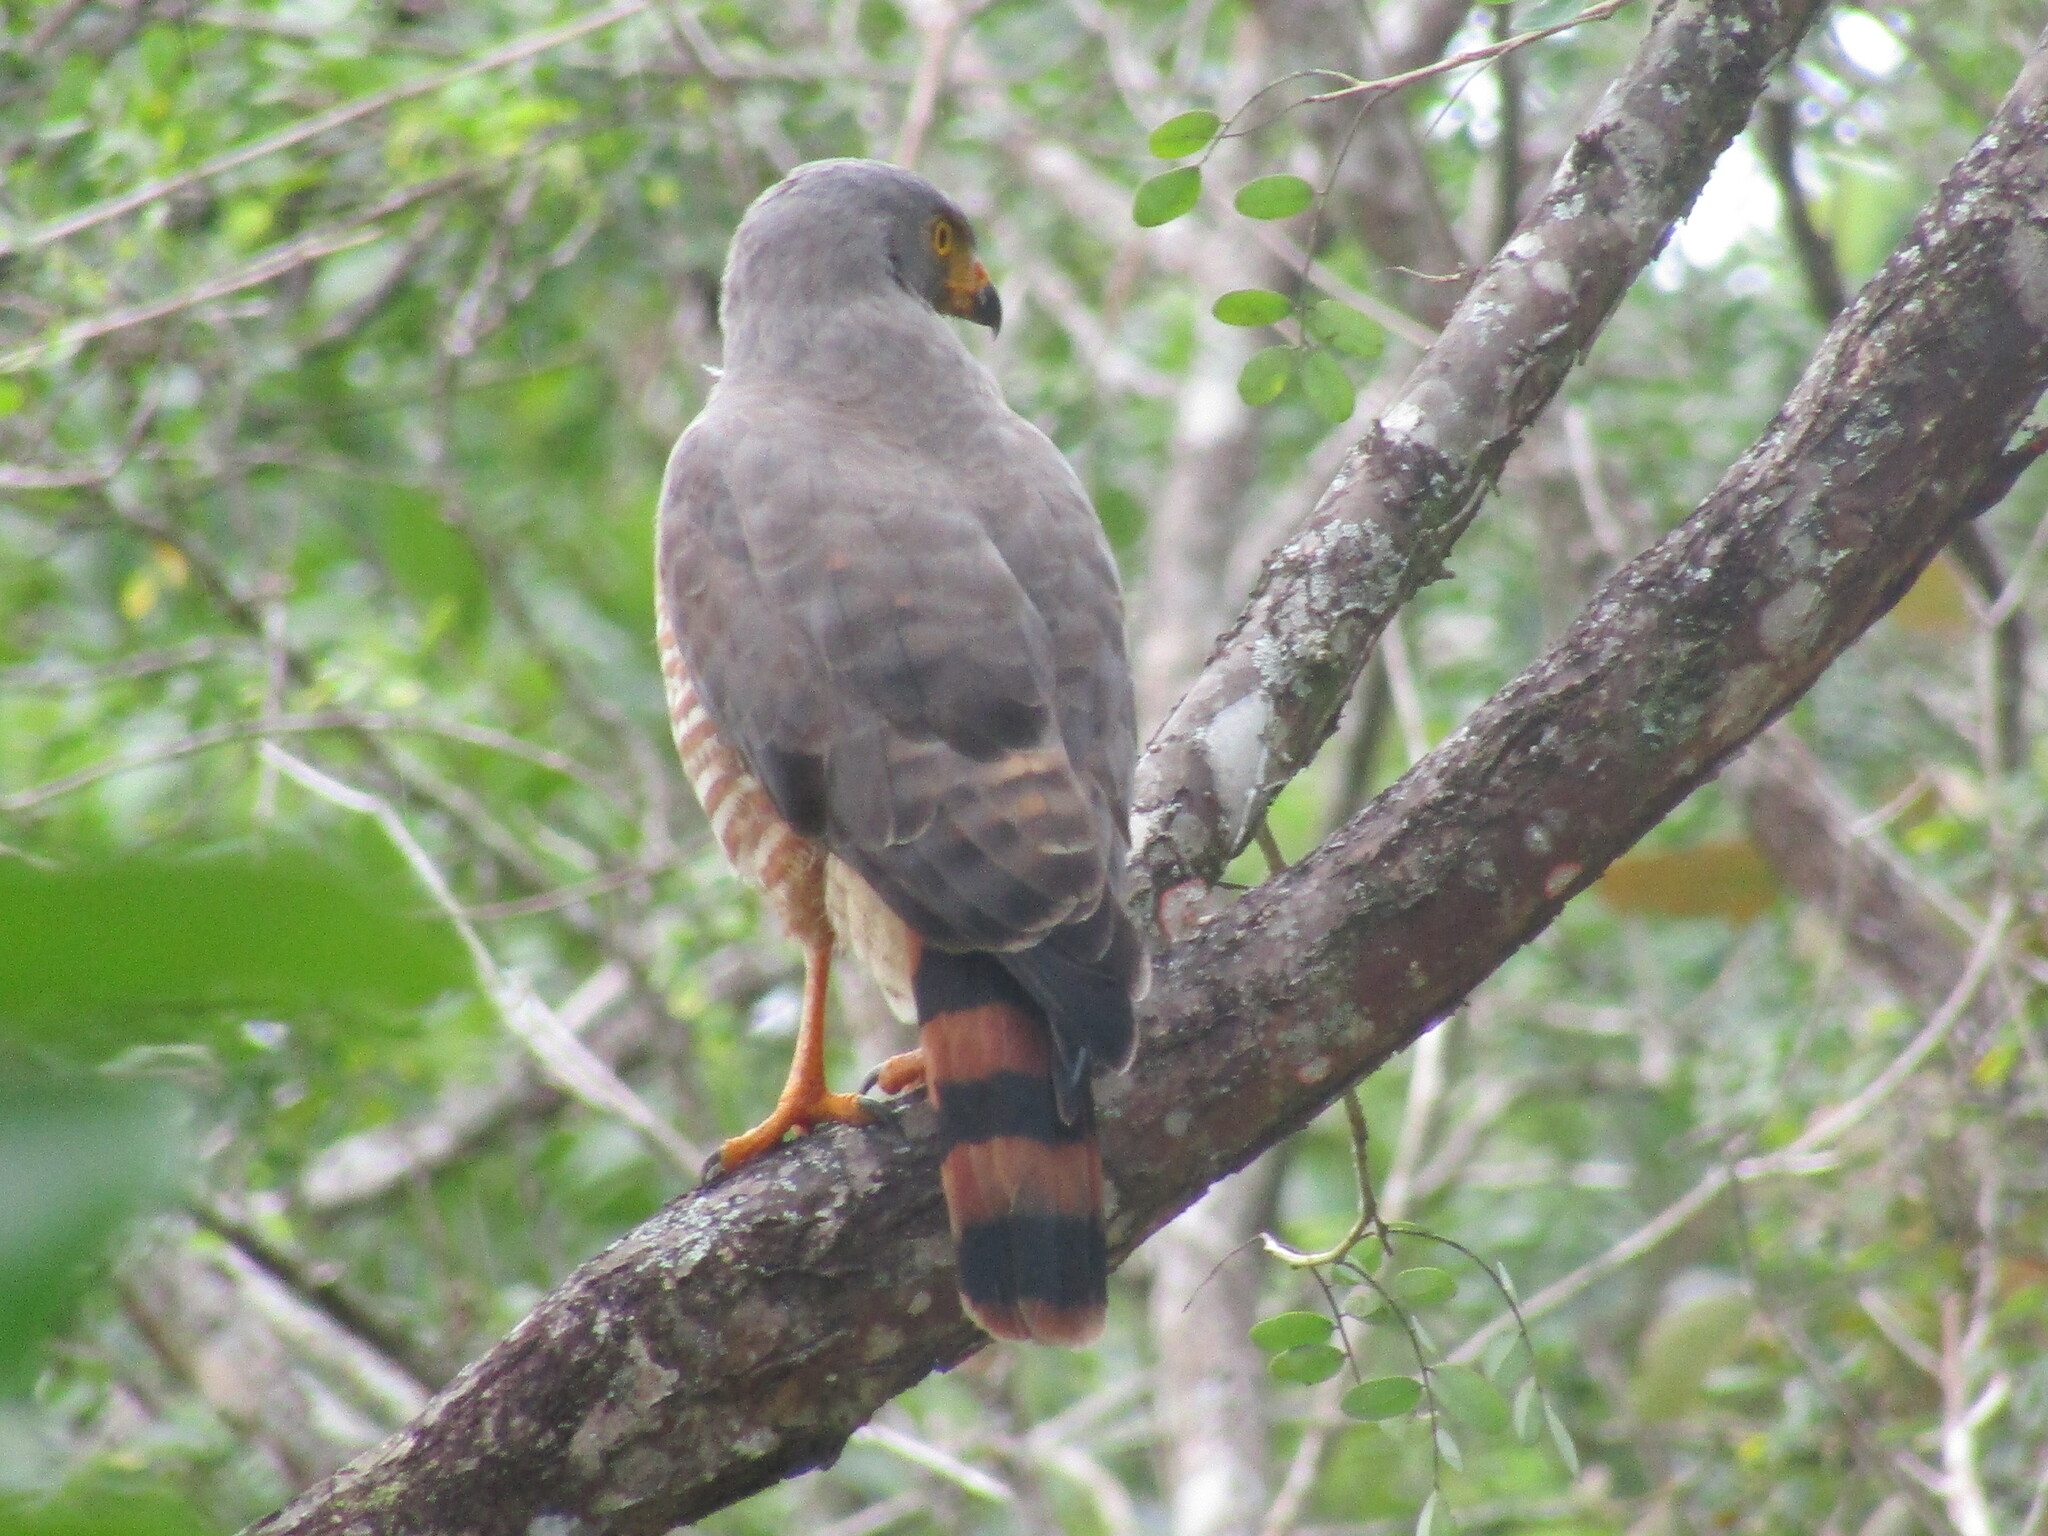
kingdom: Animalia
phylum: Chordata
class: Aves
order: Accipitriformes
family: Accipitridae
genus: Rupornis
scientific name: Rupornis magnirostris
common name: Roadside hawk
